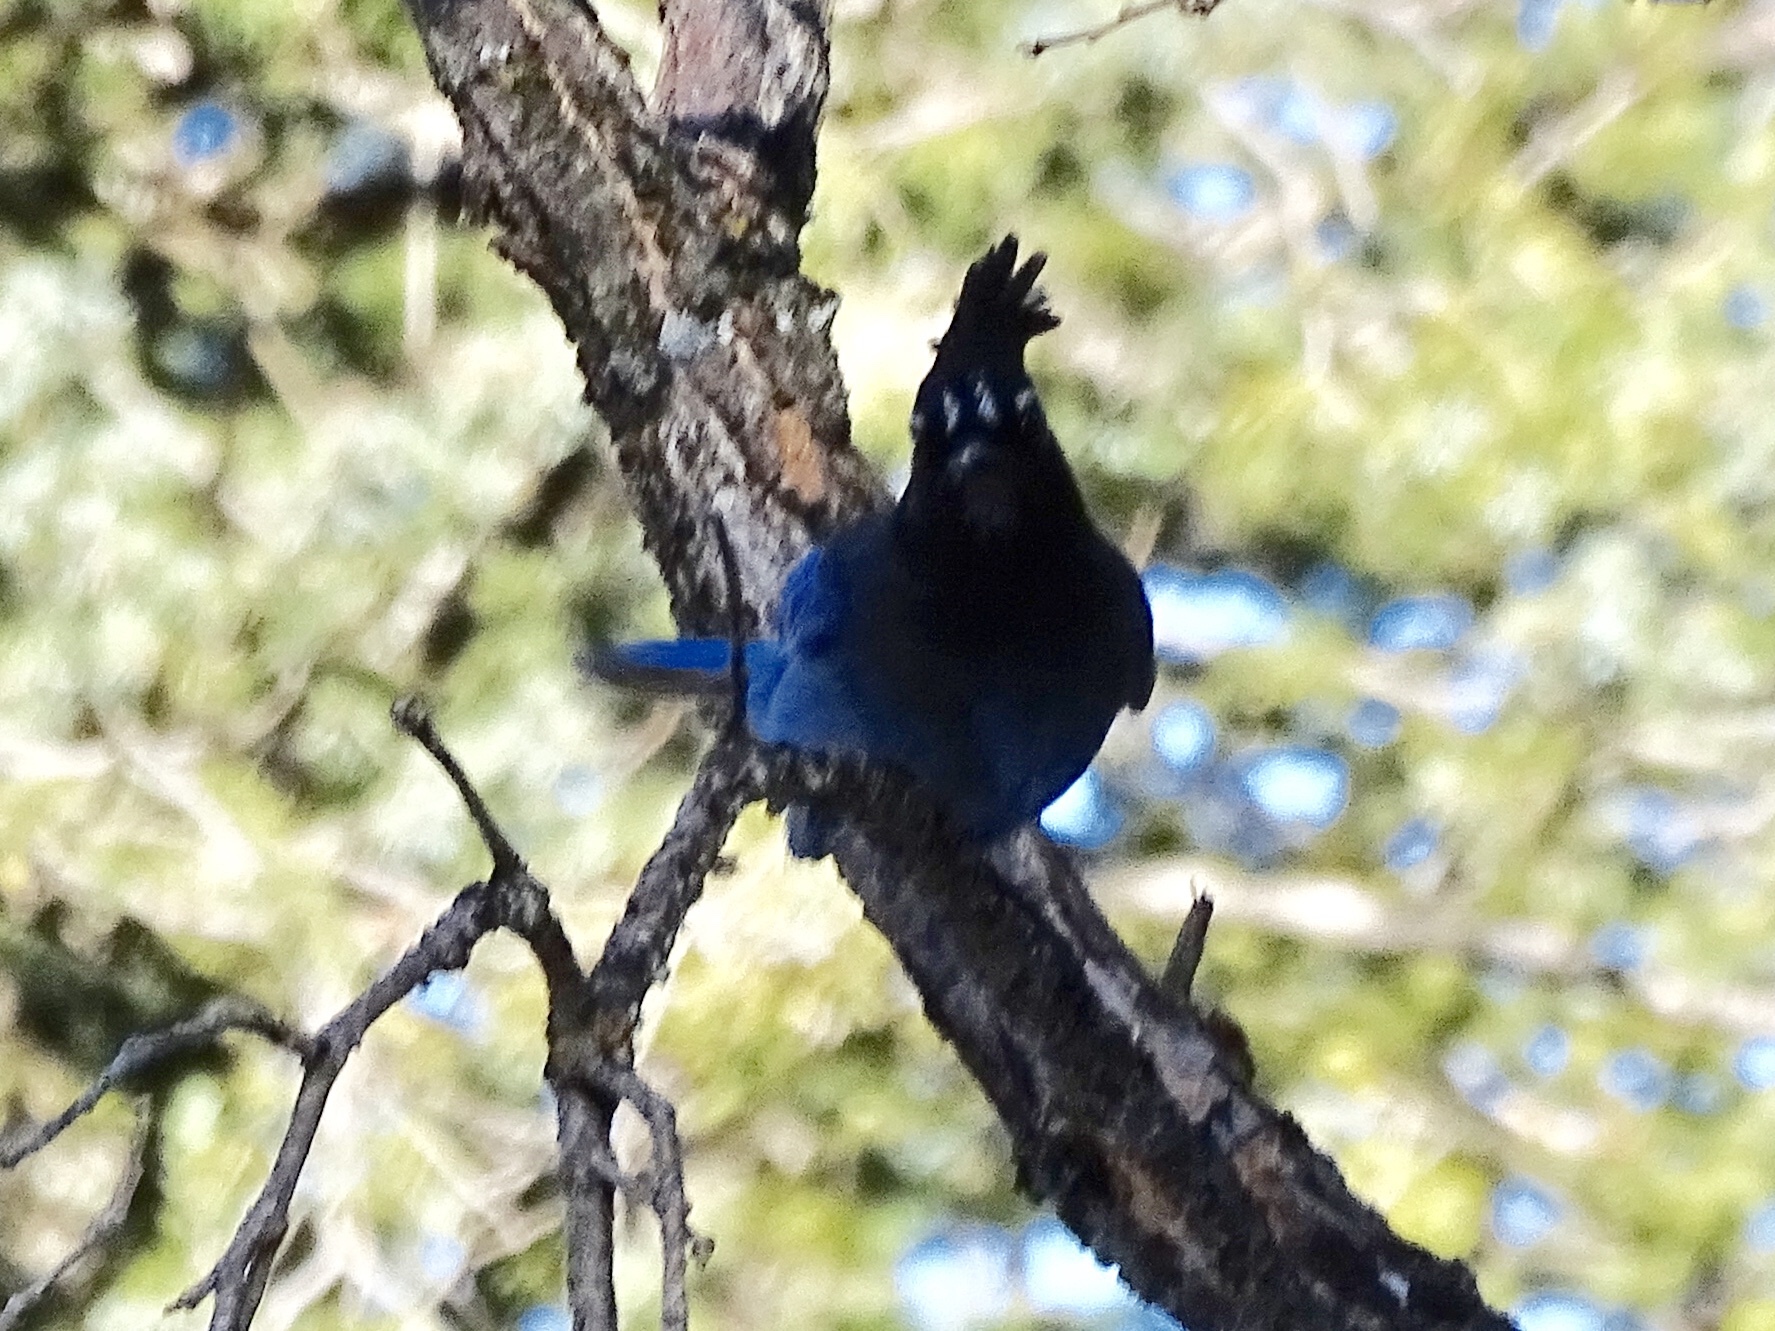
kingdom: Animalia
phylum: Chordata
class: Aves
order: Passeriformes
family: Corvidae
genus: Cyanocitta
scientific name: Cyanocitta stelleri
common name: Steller's jay
